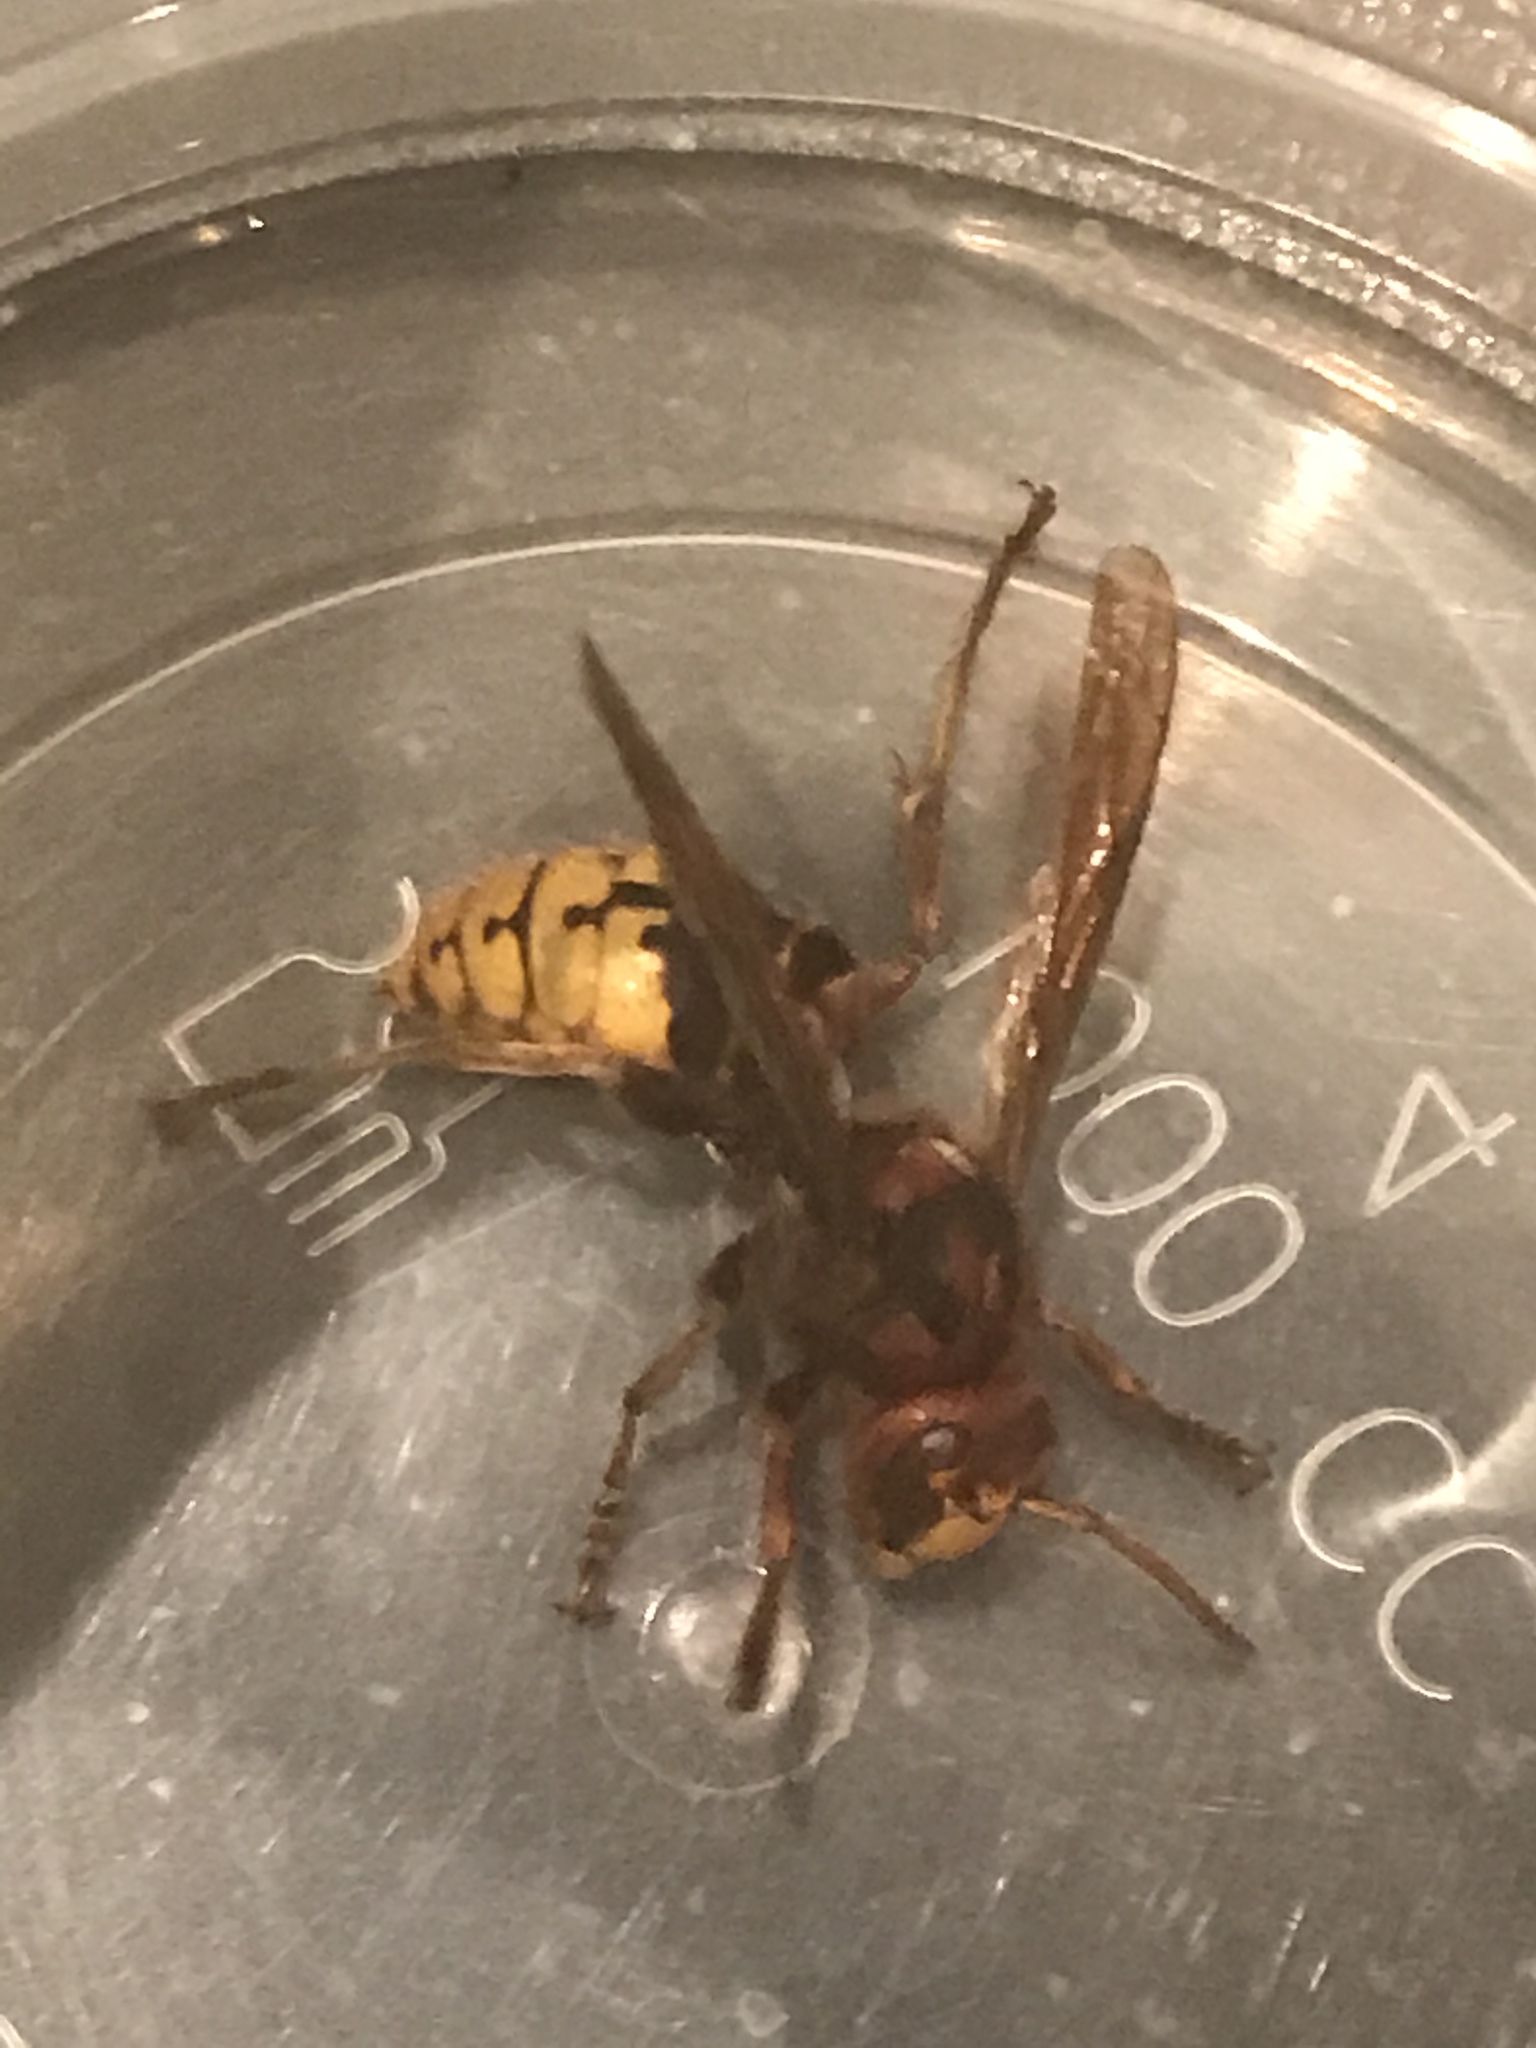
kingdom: Animalia
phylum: Arthropoda
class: Insecta
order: Hymenoptera
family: Vespidae
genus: Vespa
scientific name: Vespa crabro
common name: Hornet
